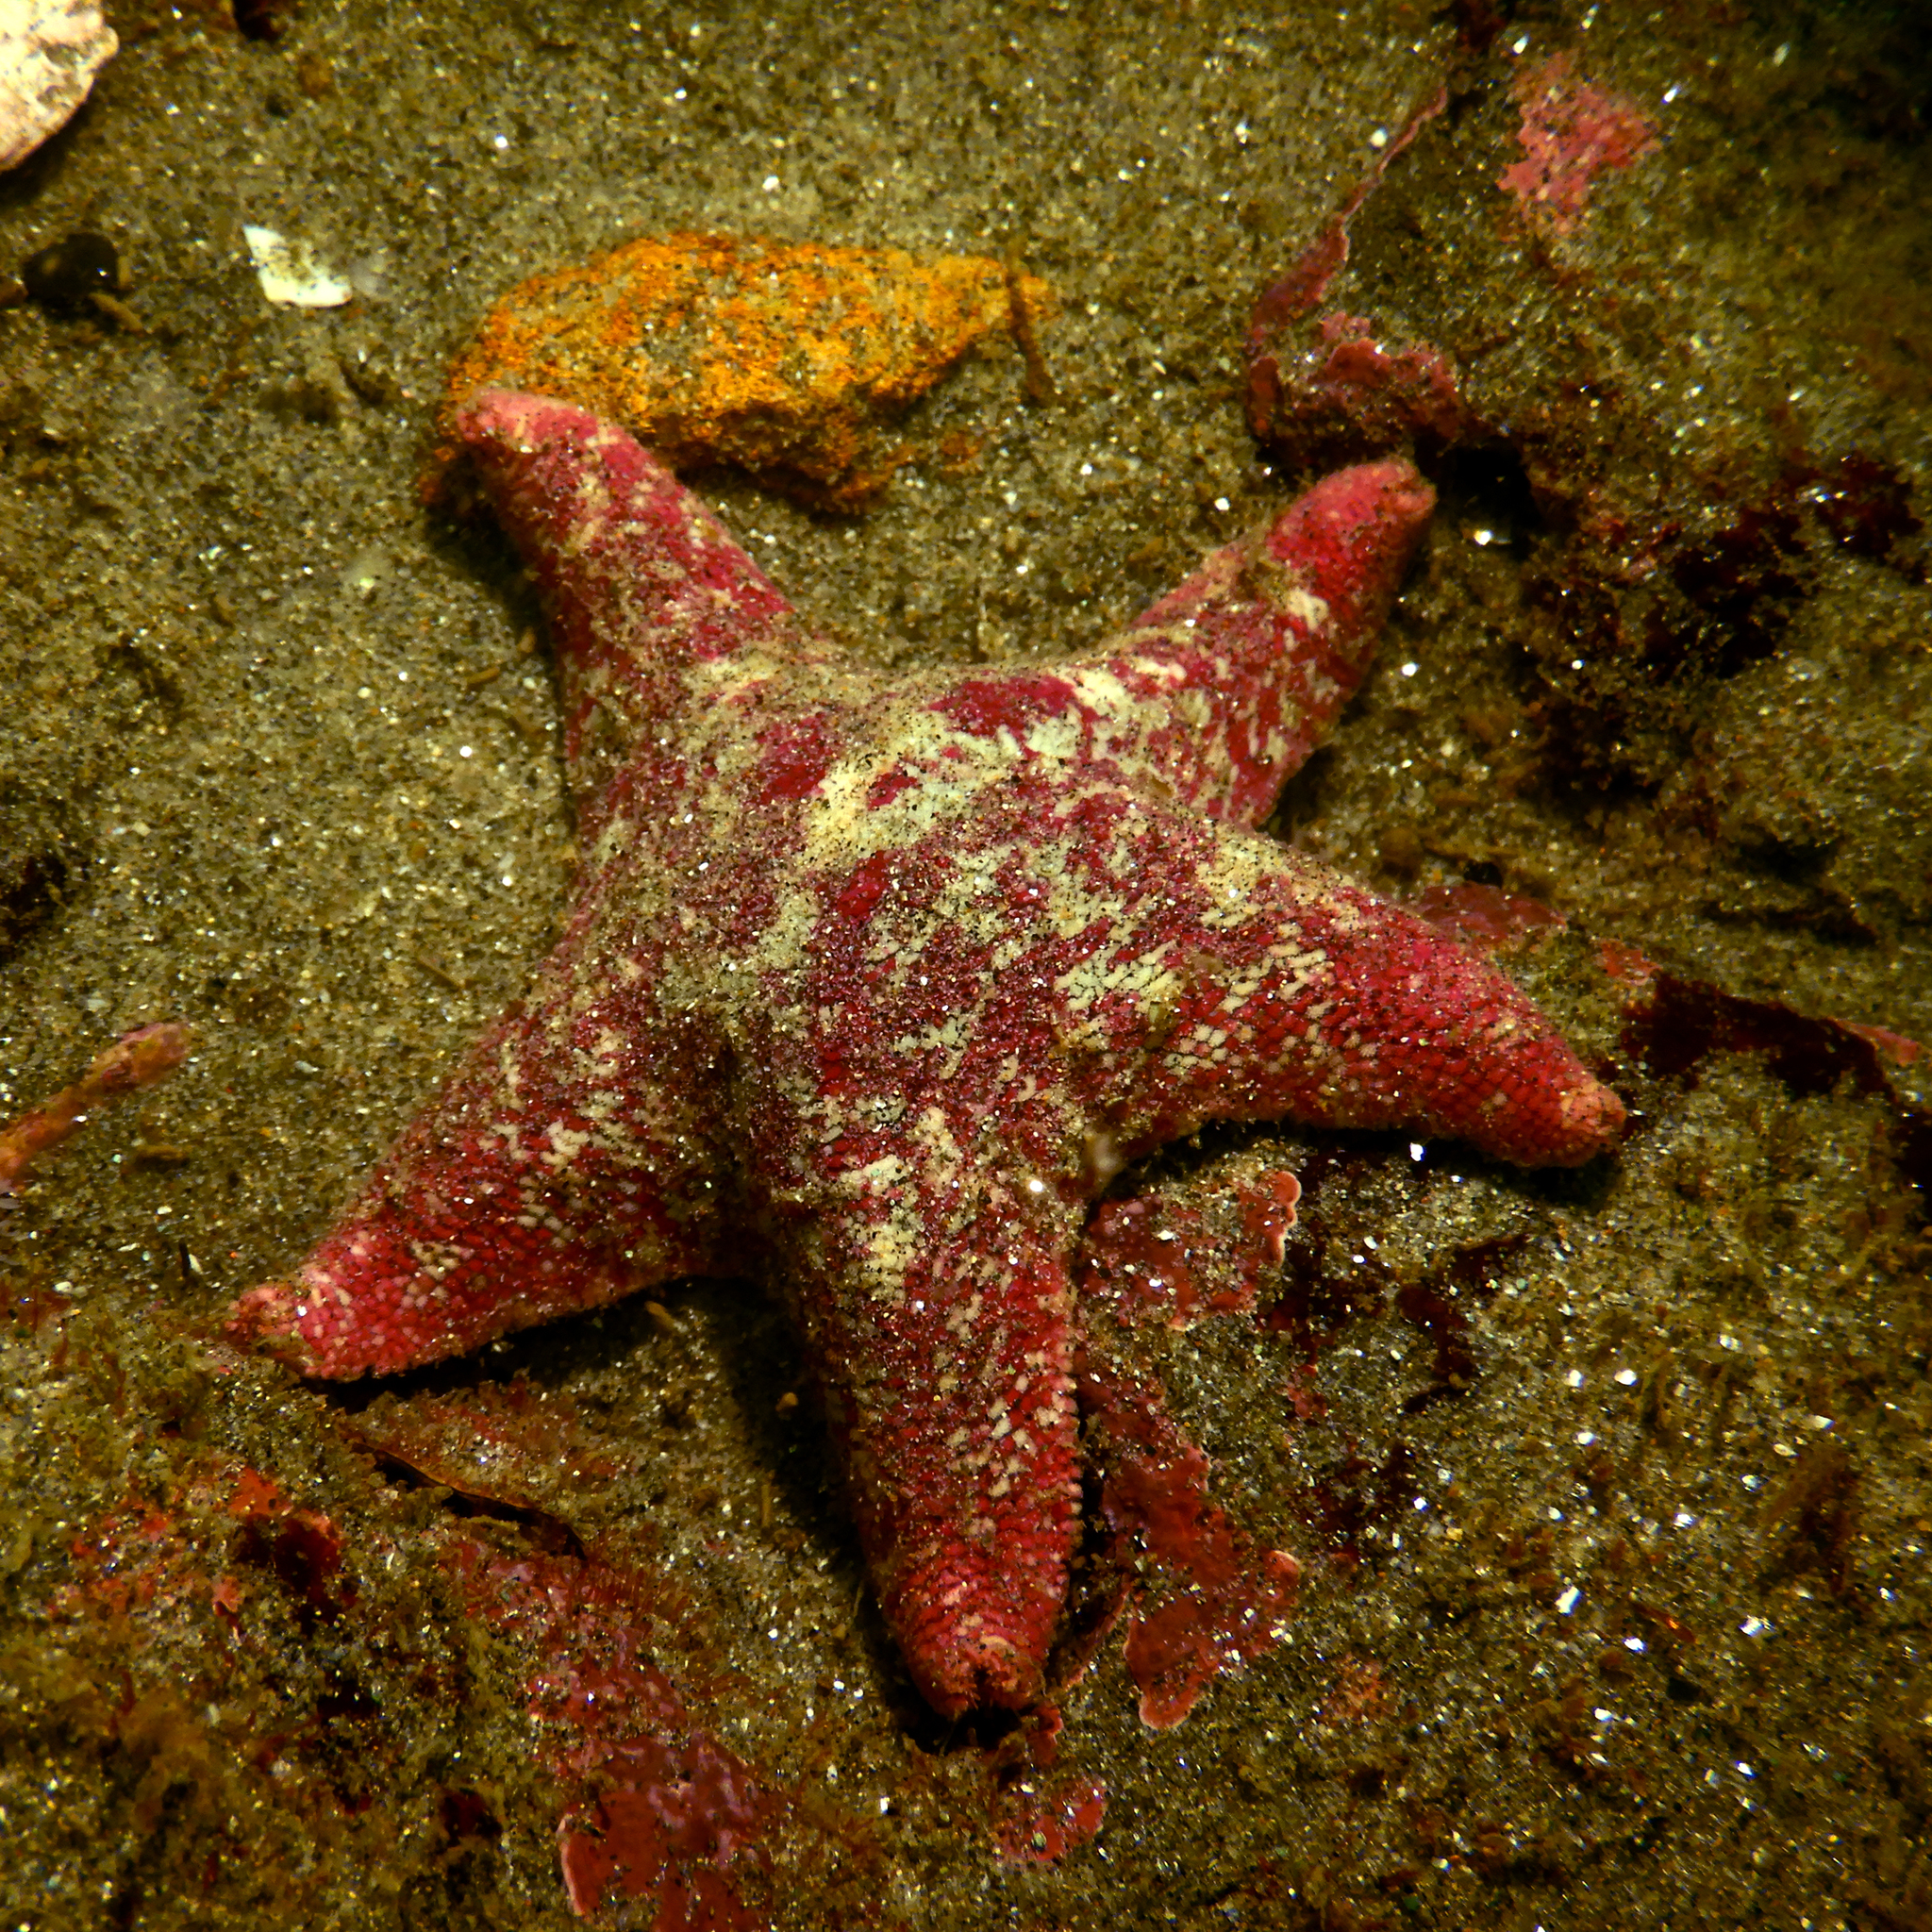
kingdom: Animalia
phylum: Echinodermata
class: Asteroidea
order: Valvatida
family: Asterinidae
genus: Patiria
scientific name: Patiria chilensis
